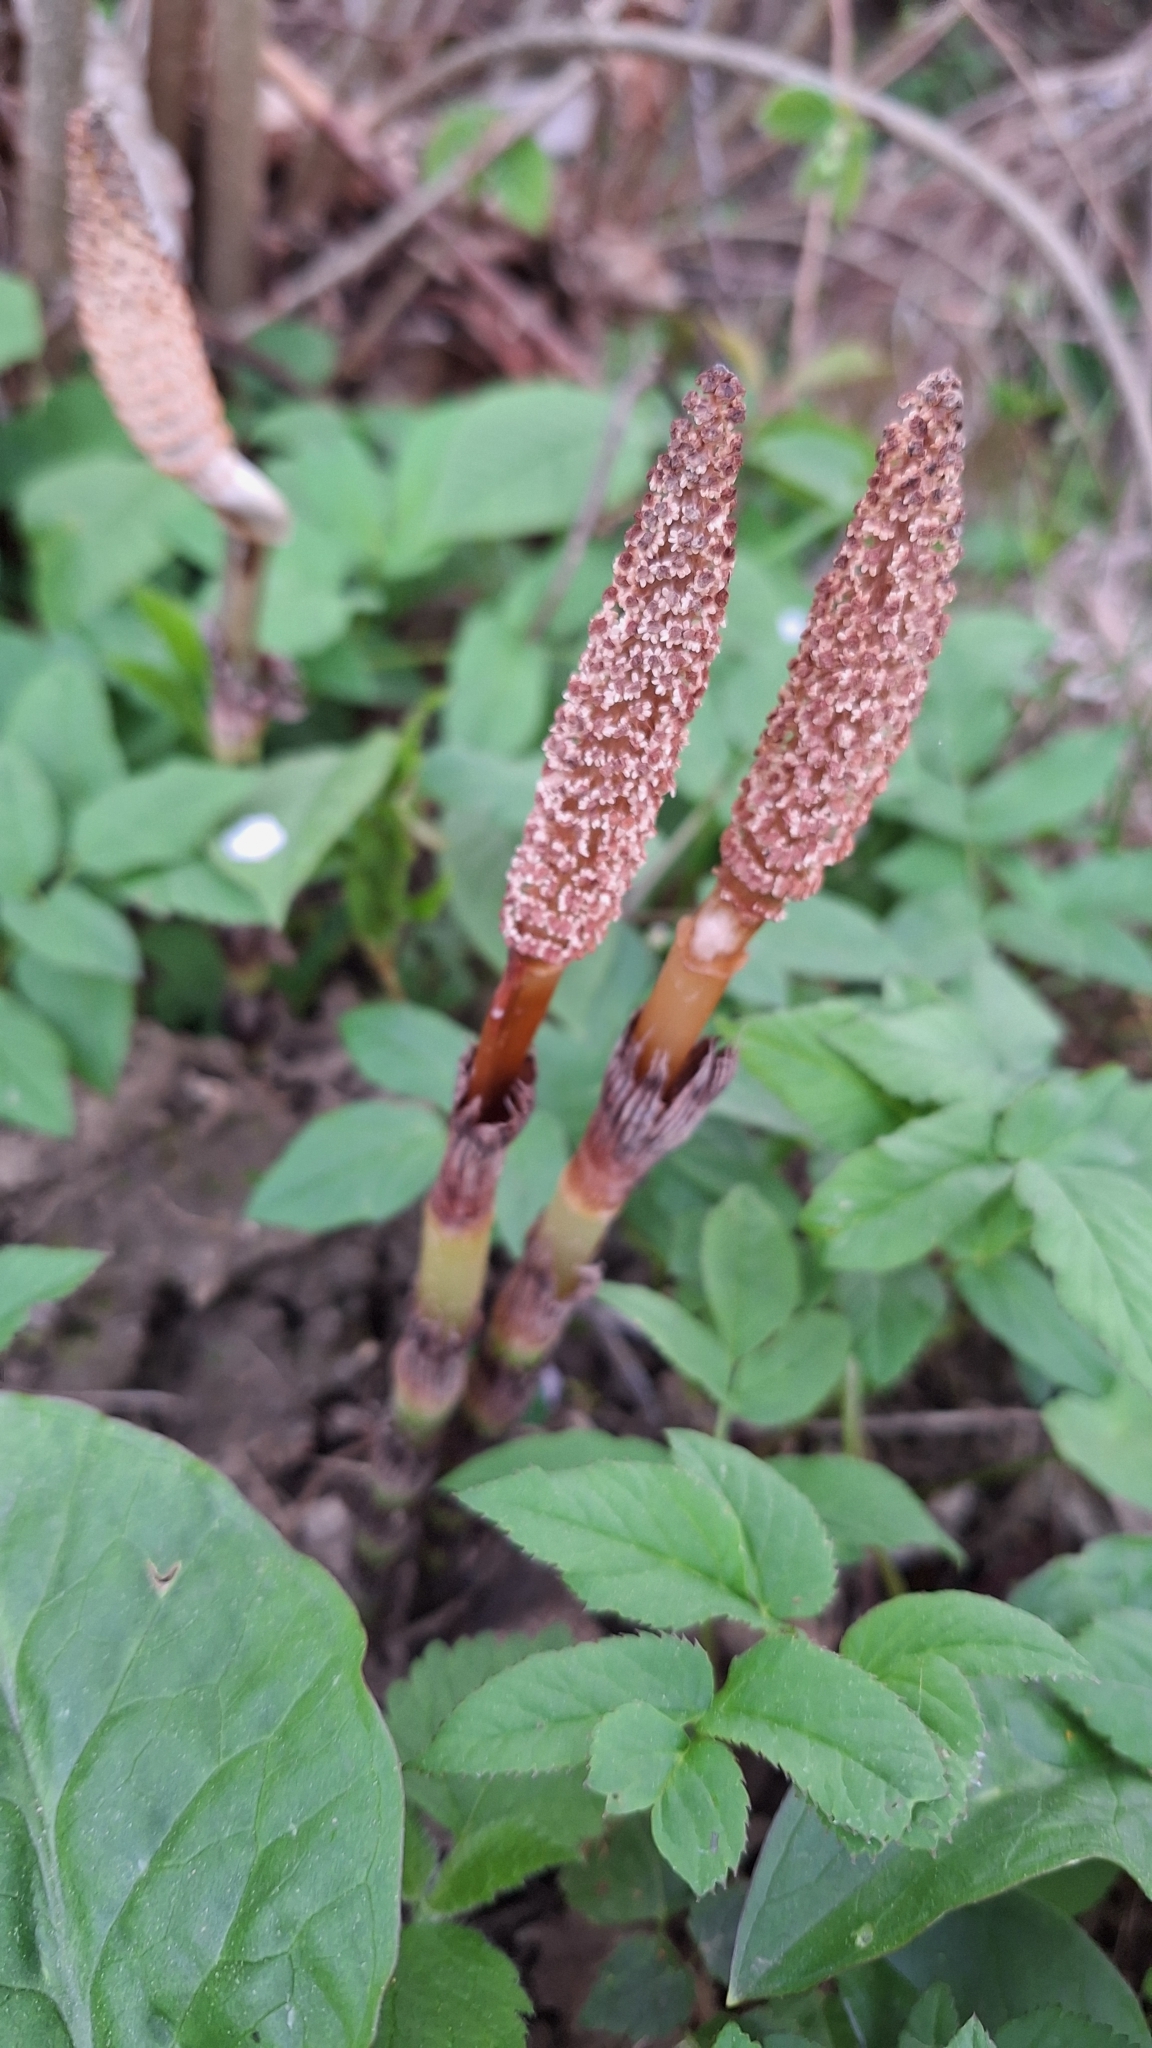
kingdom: Plantae
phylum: Tracheophyta
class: Polypodiopsida
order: Equisetales
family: Equisetaceae
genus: Equisetum
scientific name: Equisetum telmateia
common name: Great horsetail
